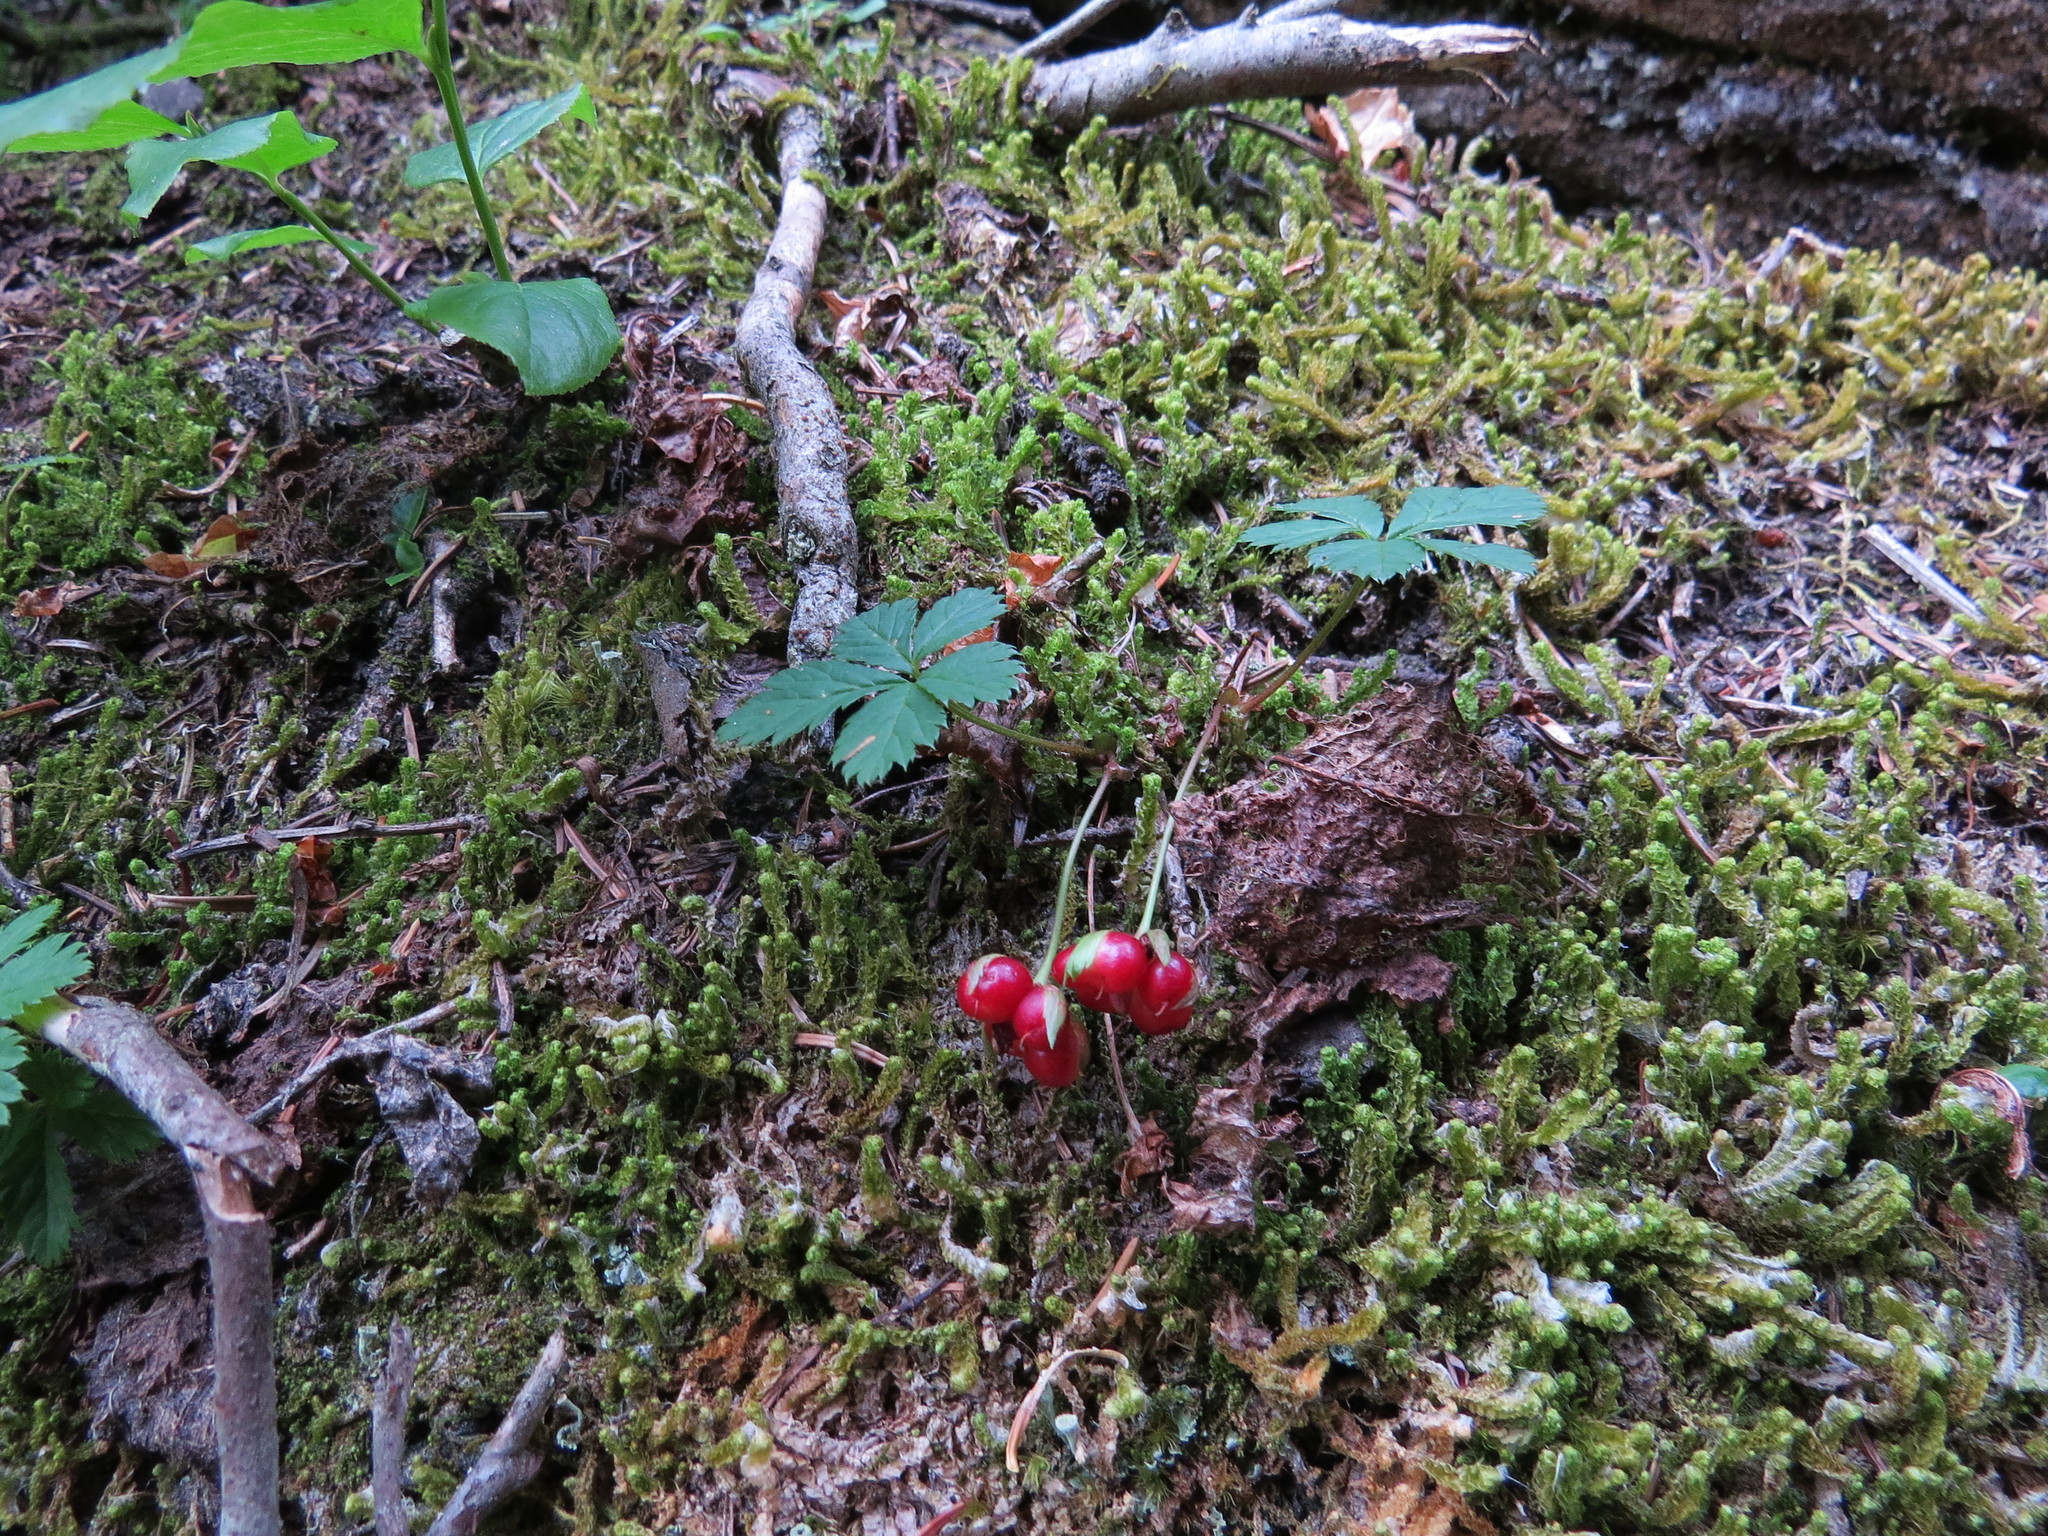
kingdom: Plantae
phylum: Tracheophyta
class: Magnoliopsida
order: Rosales
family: Rosaceae
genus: Rubus
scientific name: Rubus pedatus
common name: Creeping raspberry
